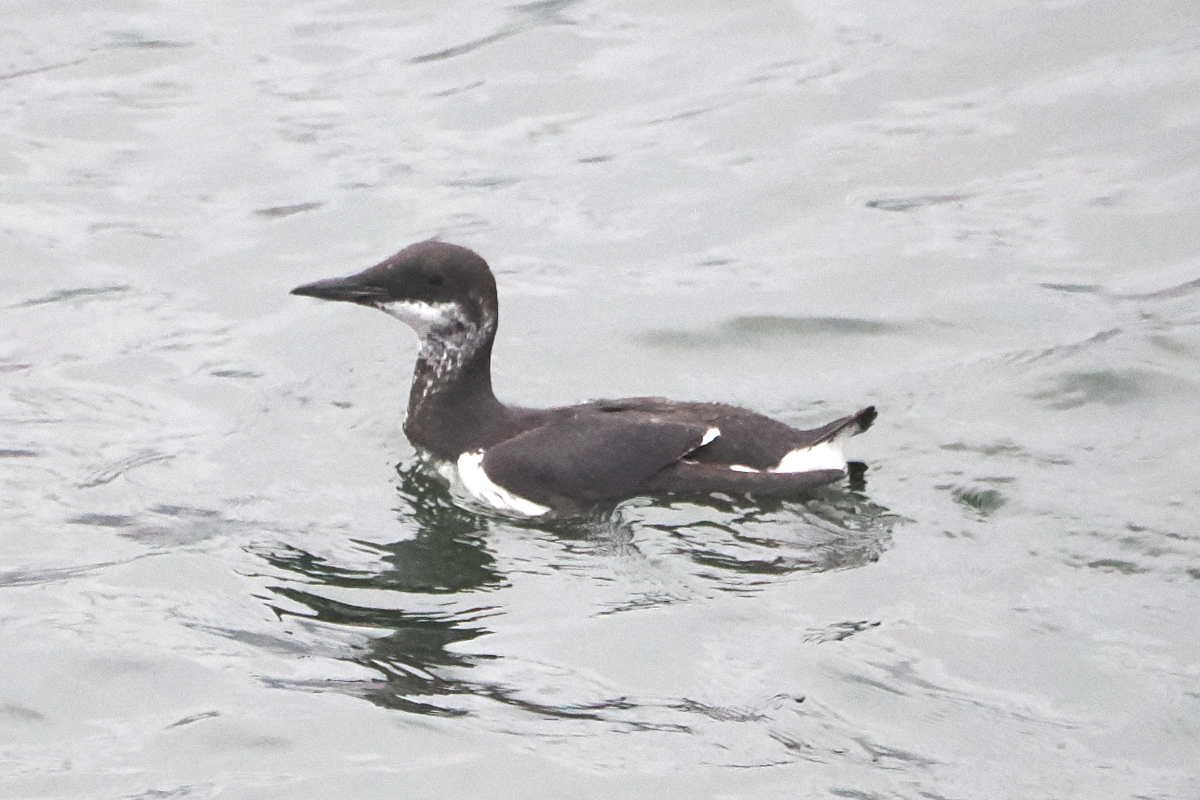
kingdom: Animalia
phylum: Chordata
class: Aves
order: Charadriiformes
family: Alcidae
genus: Uria
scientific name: Uria aalge
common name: Common murre
